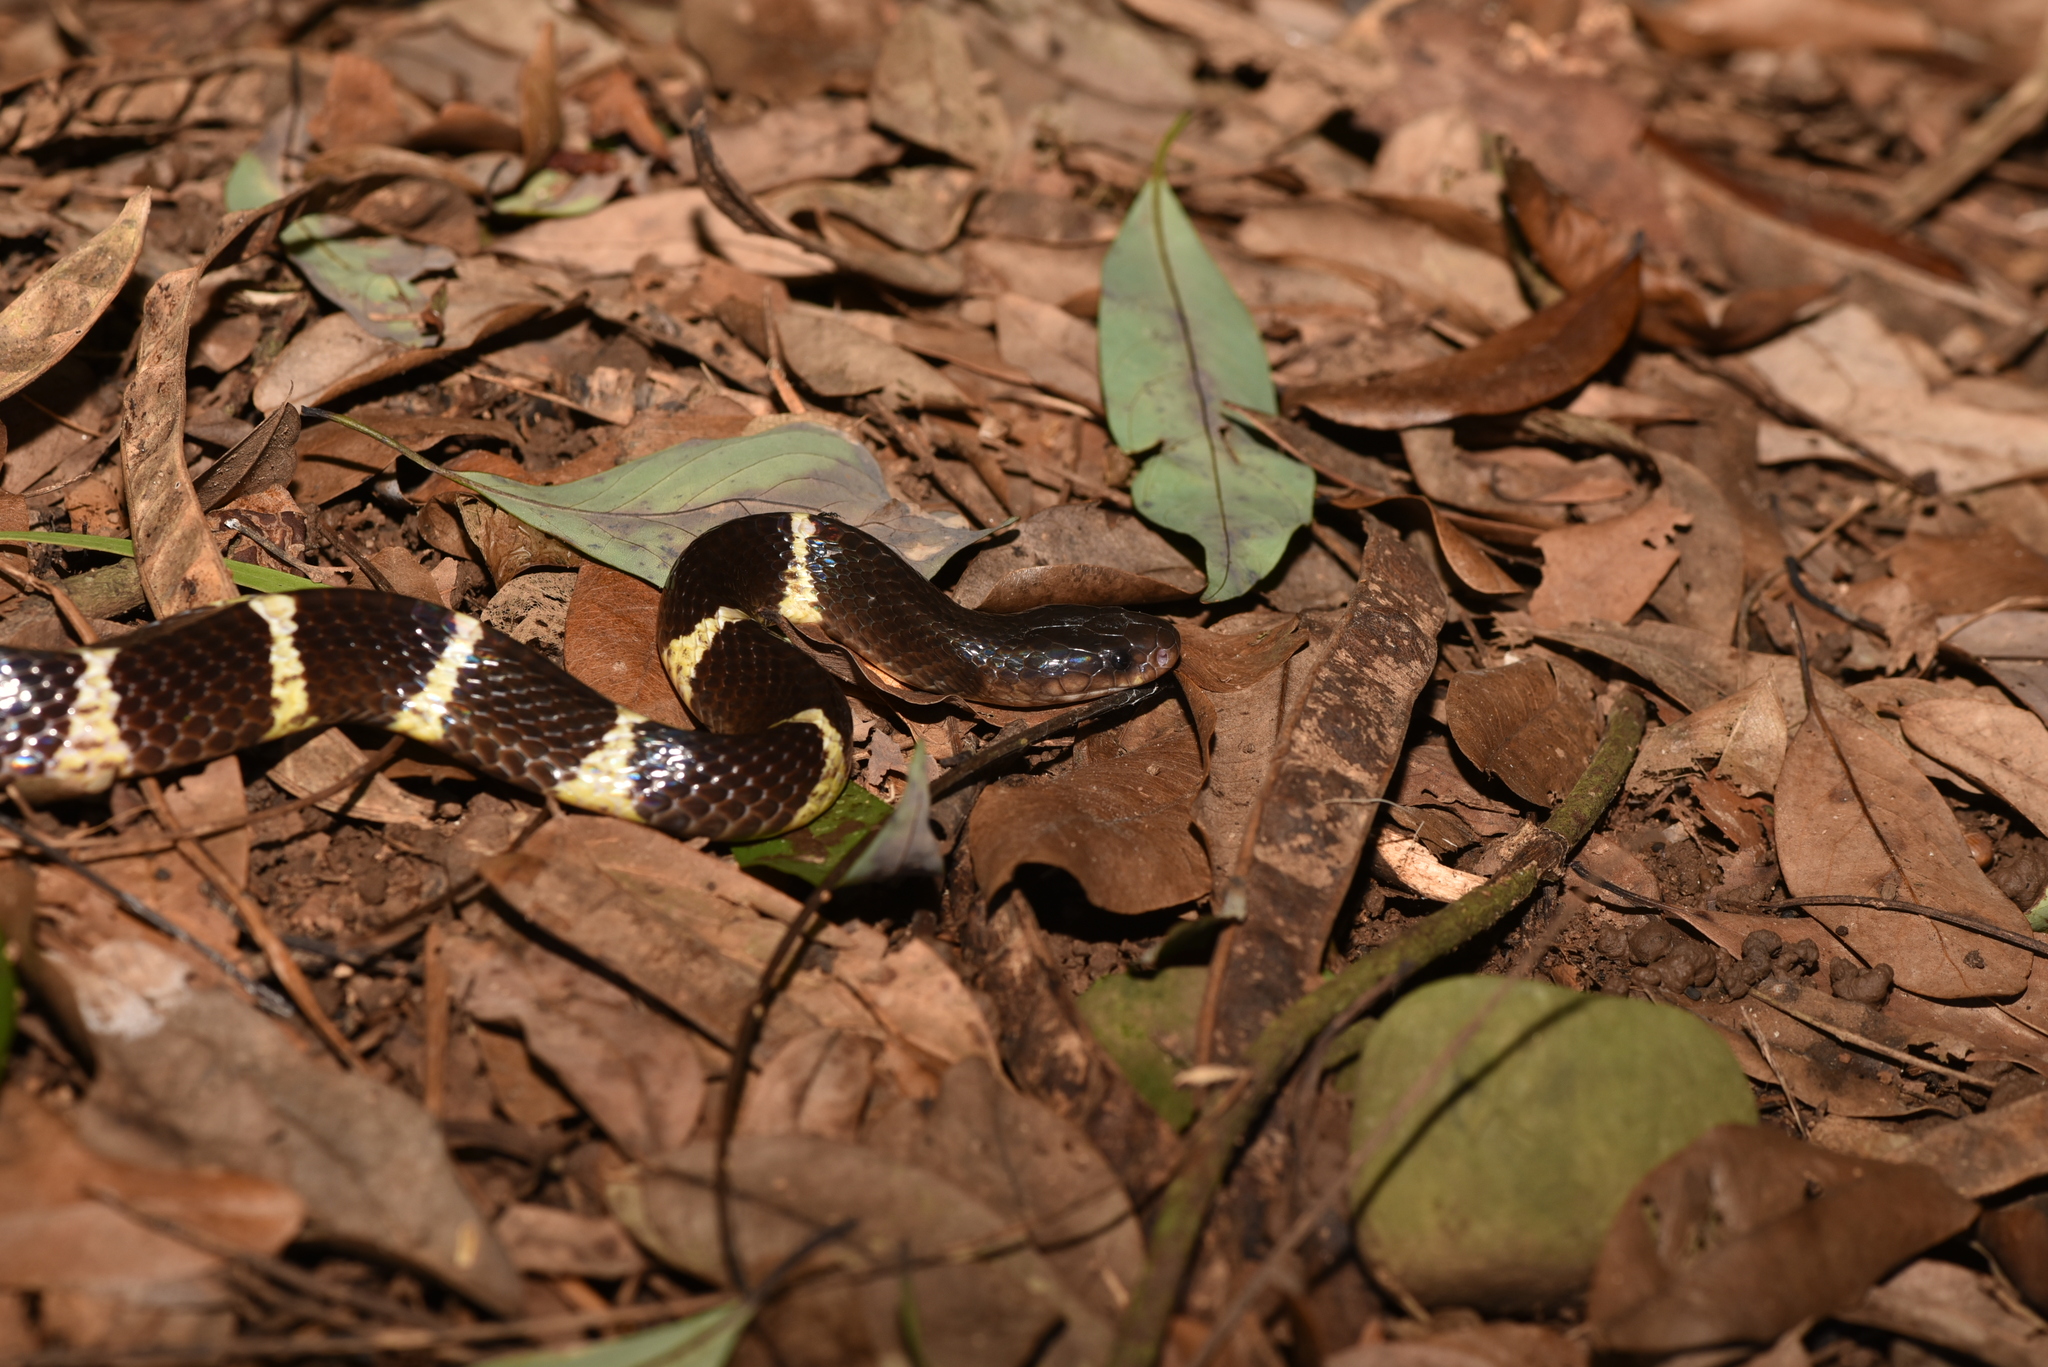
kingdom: Animalia
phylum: Chordata
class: Squamata
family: Elapidae
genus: Bungarus
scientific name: Bungarus multicinctus
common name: Many-banded krait
